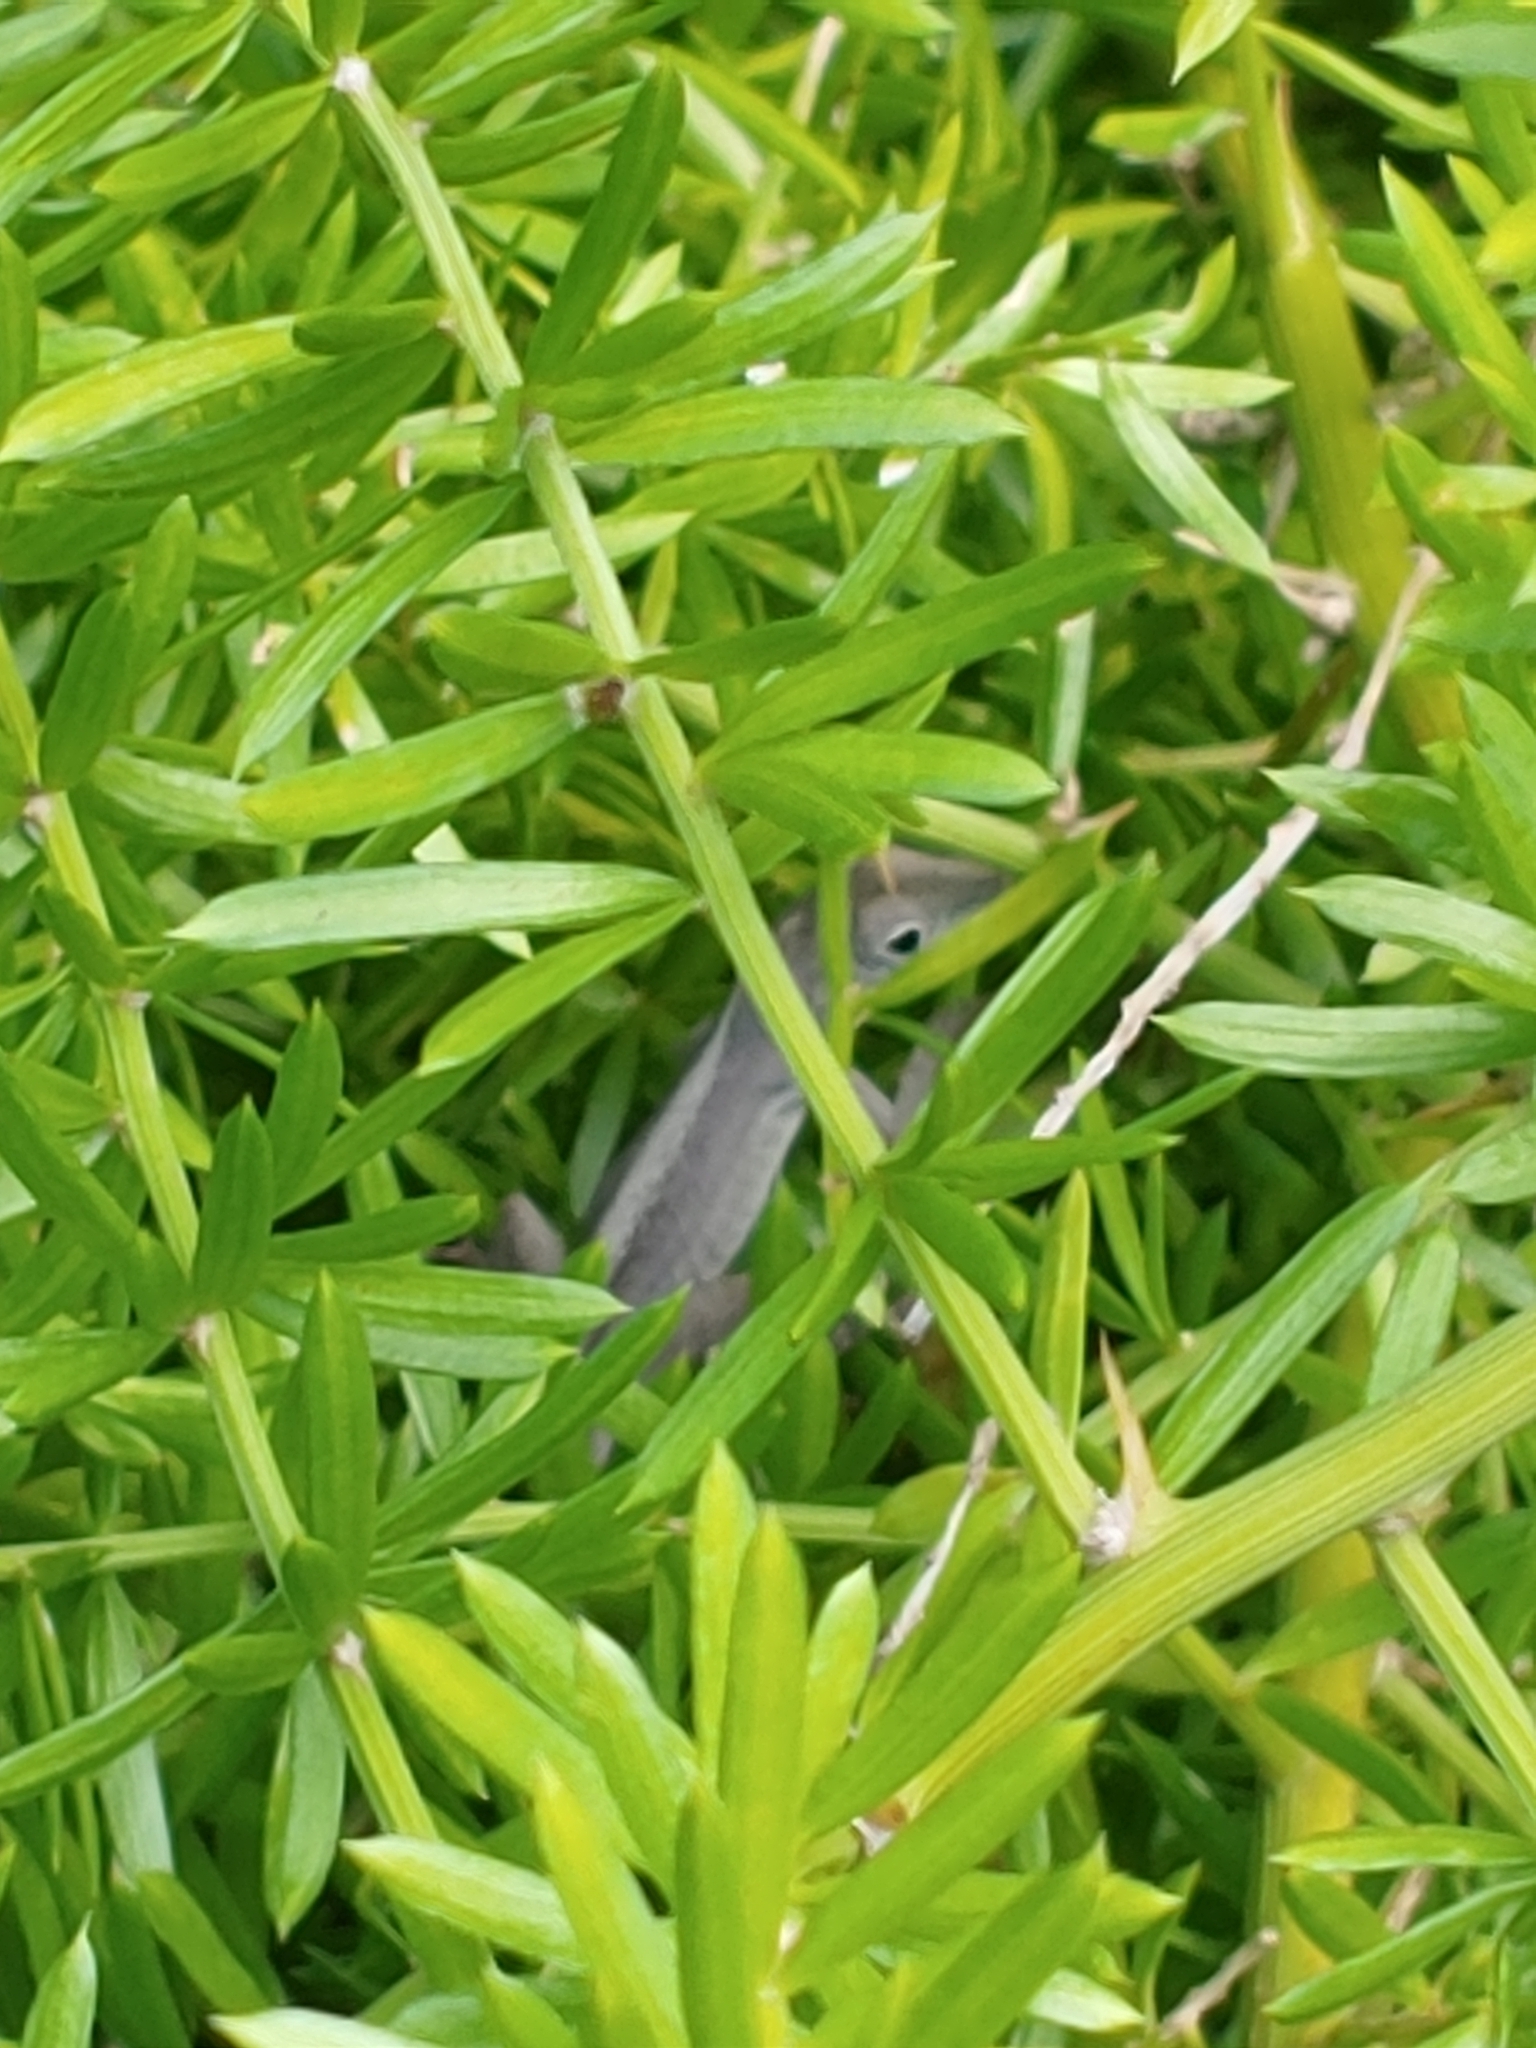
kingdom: Animalia
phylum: Chordata
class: Squamata
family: Dactyloidae
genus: Anolis
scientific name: Anolis grahami
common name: Graham's anole
